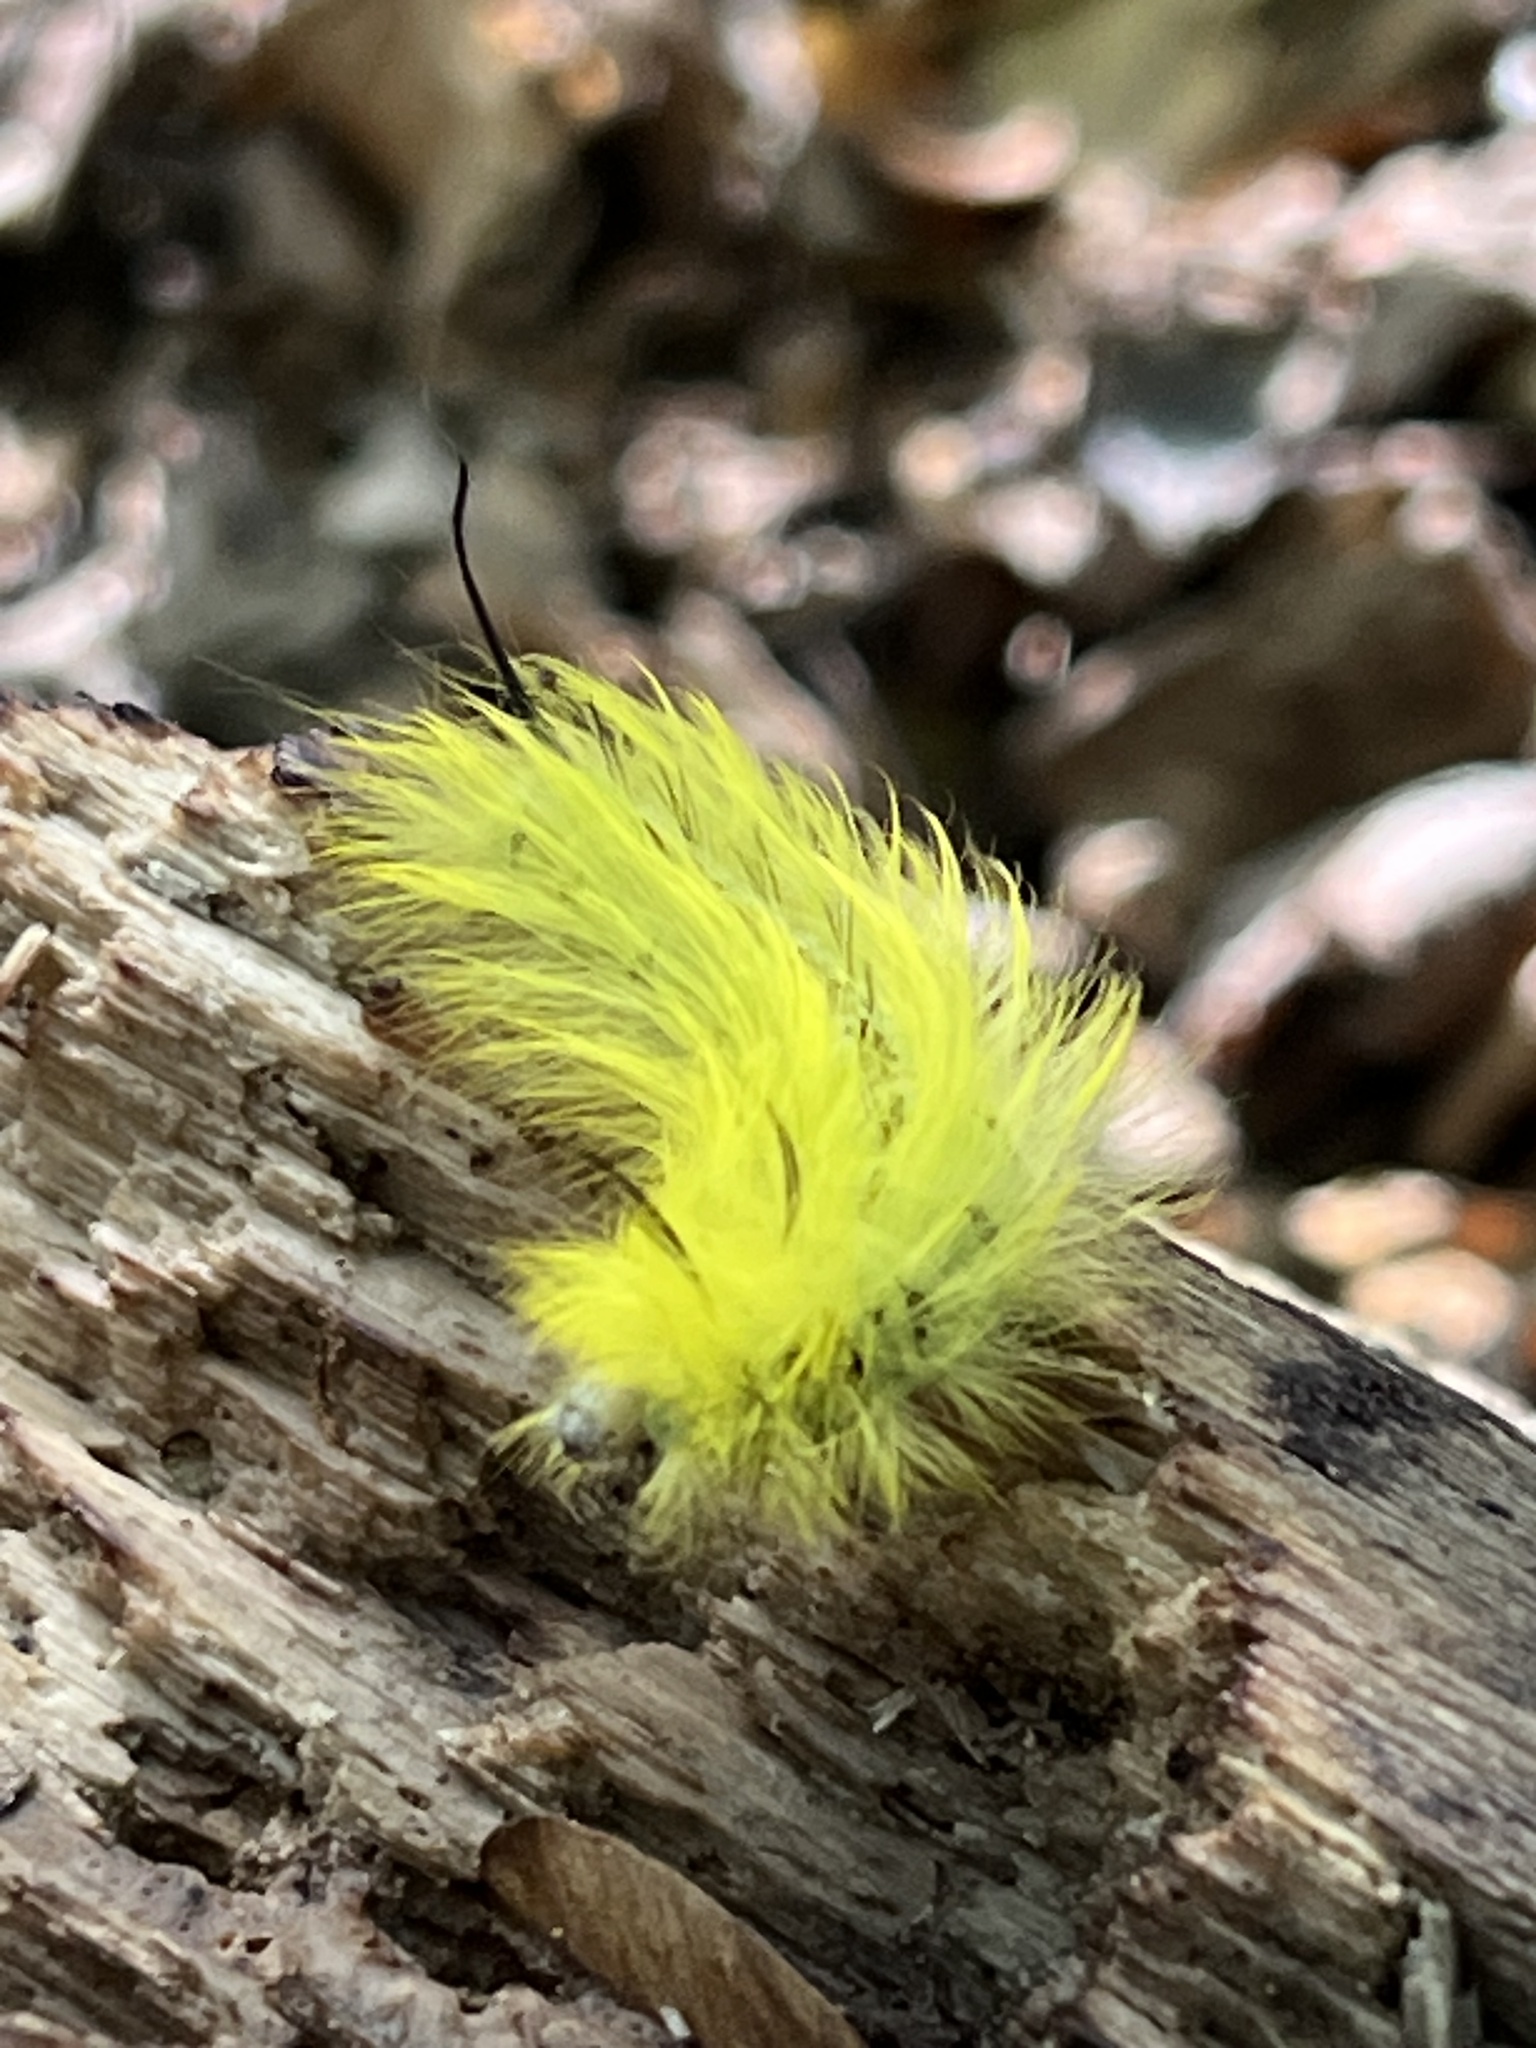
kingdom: Animalia
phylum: Arthropoda
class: Insecta
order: Lepidoptera
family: Apatelodidae
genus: Hygrochroa
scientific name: Hygrochroa Apatelodes torrefacta
